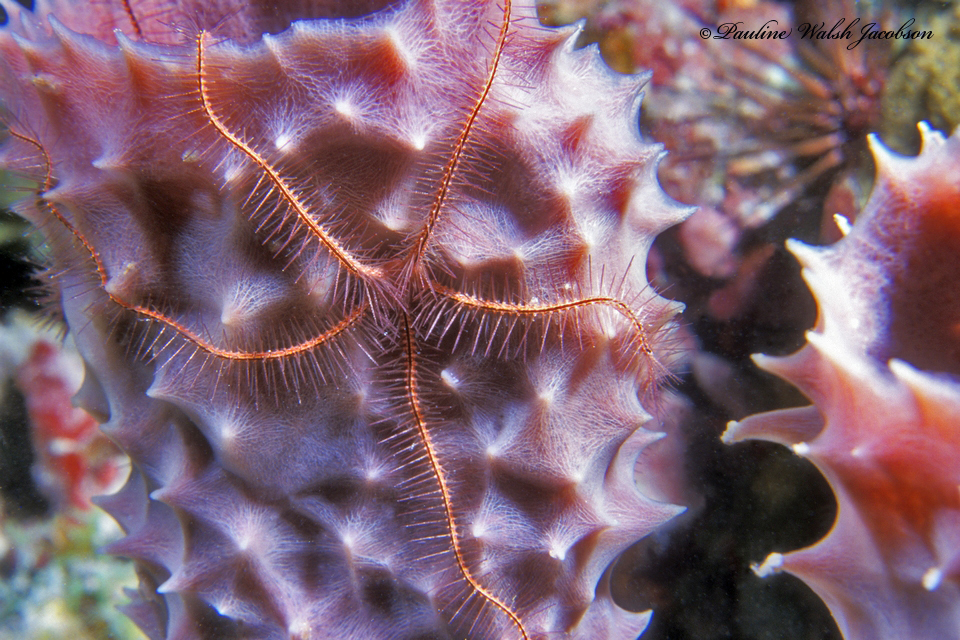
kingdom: Animalia
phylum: Echinodermata
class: Ophiuroidea
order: Amphilepidida
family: Ophiotrichidae
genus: Ophiothrix
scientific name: Ophiothrix suensonii
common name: Sponge brittle star
